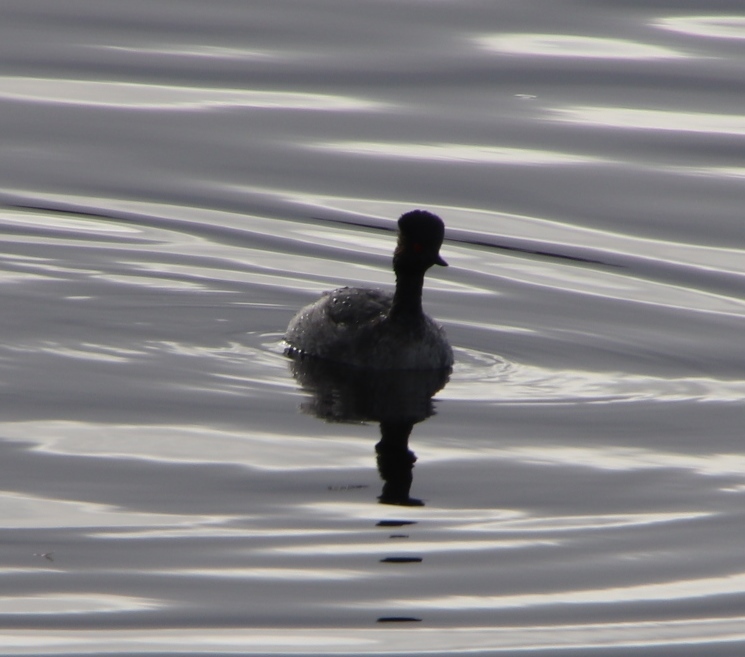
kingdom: Animalia
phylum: Chordata
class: Aves
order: Podicipediformes
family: Podicipedidae
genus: Podiceps
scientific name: Podiceps nigricollis
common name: Black-necked grebe
